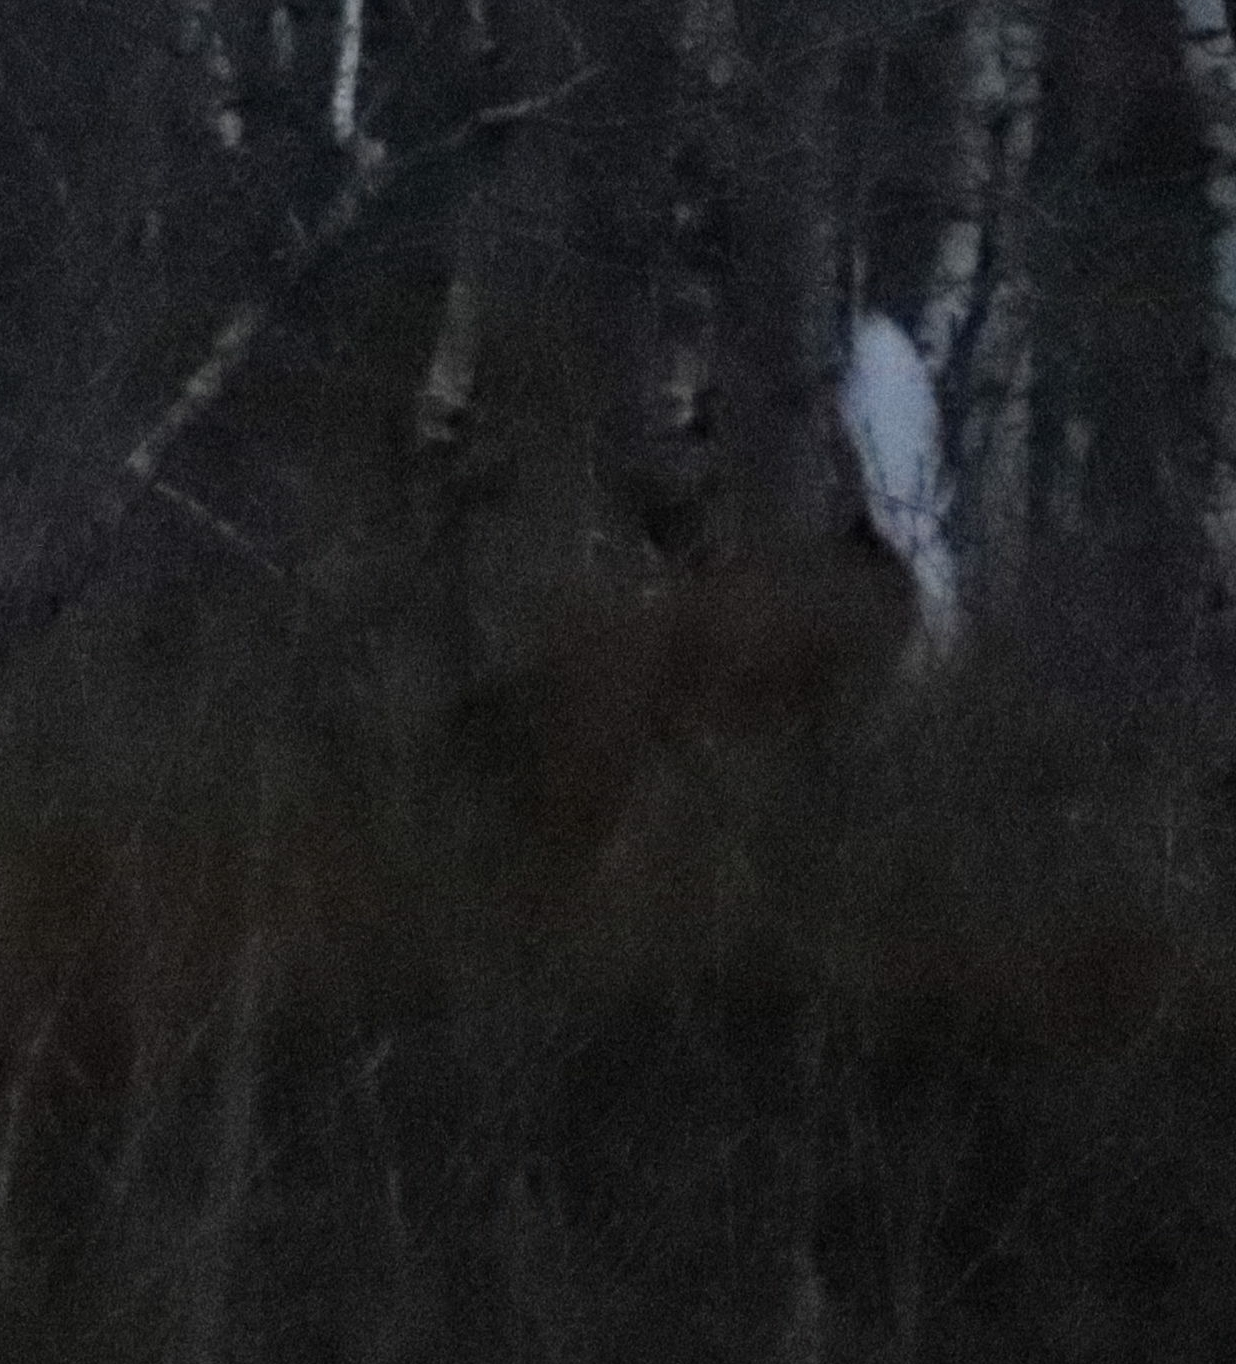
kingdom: Animalia
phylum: Chordata
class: Mammalia
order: Artiodactyla
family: Cervidae
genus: Odocoileus
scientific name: Odocoileus virginianus
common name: White-tailed deer
